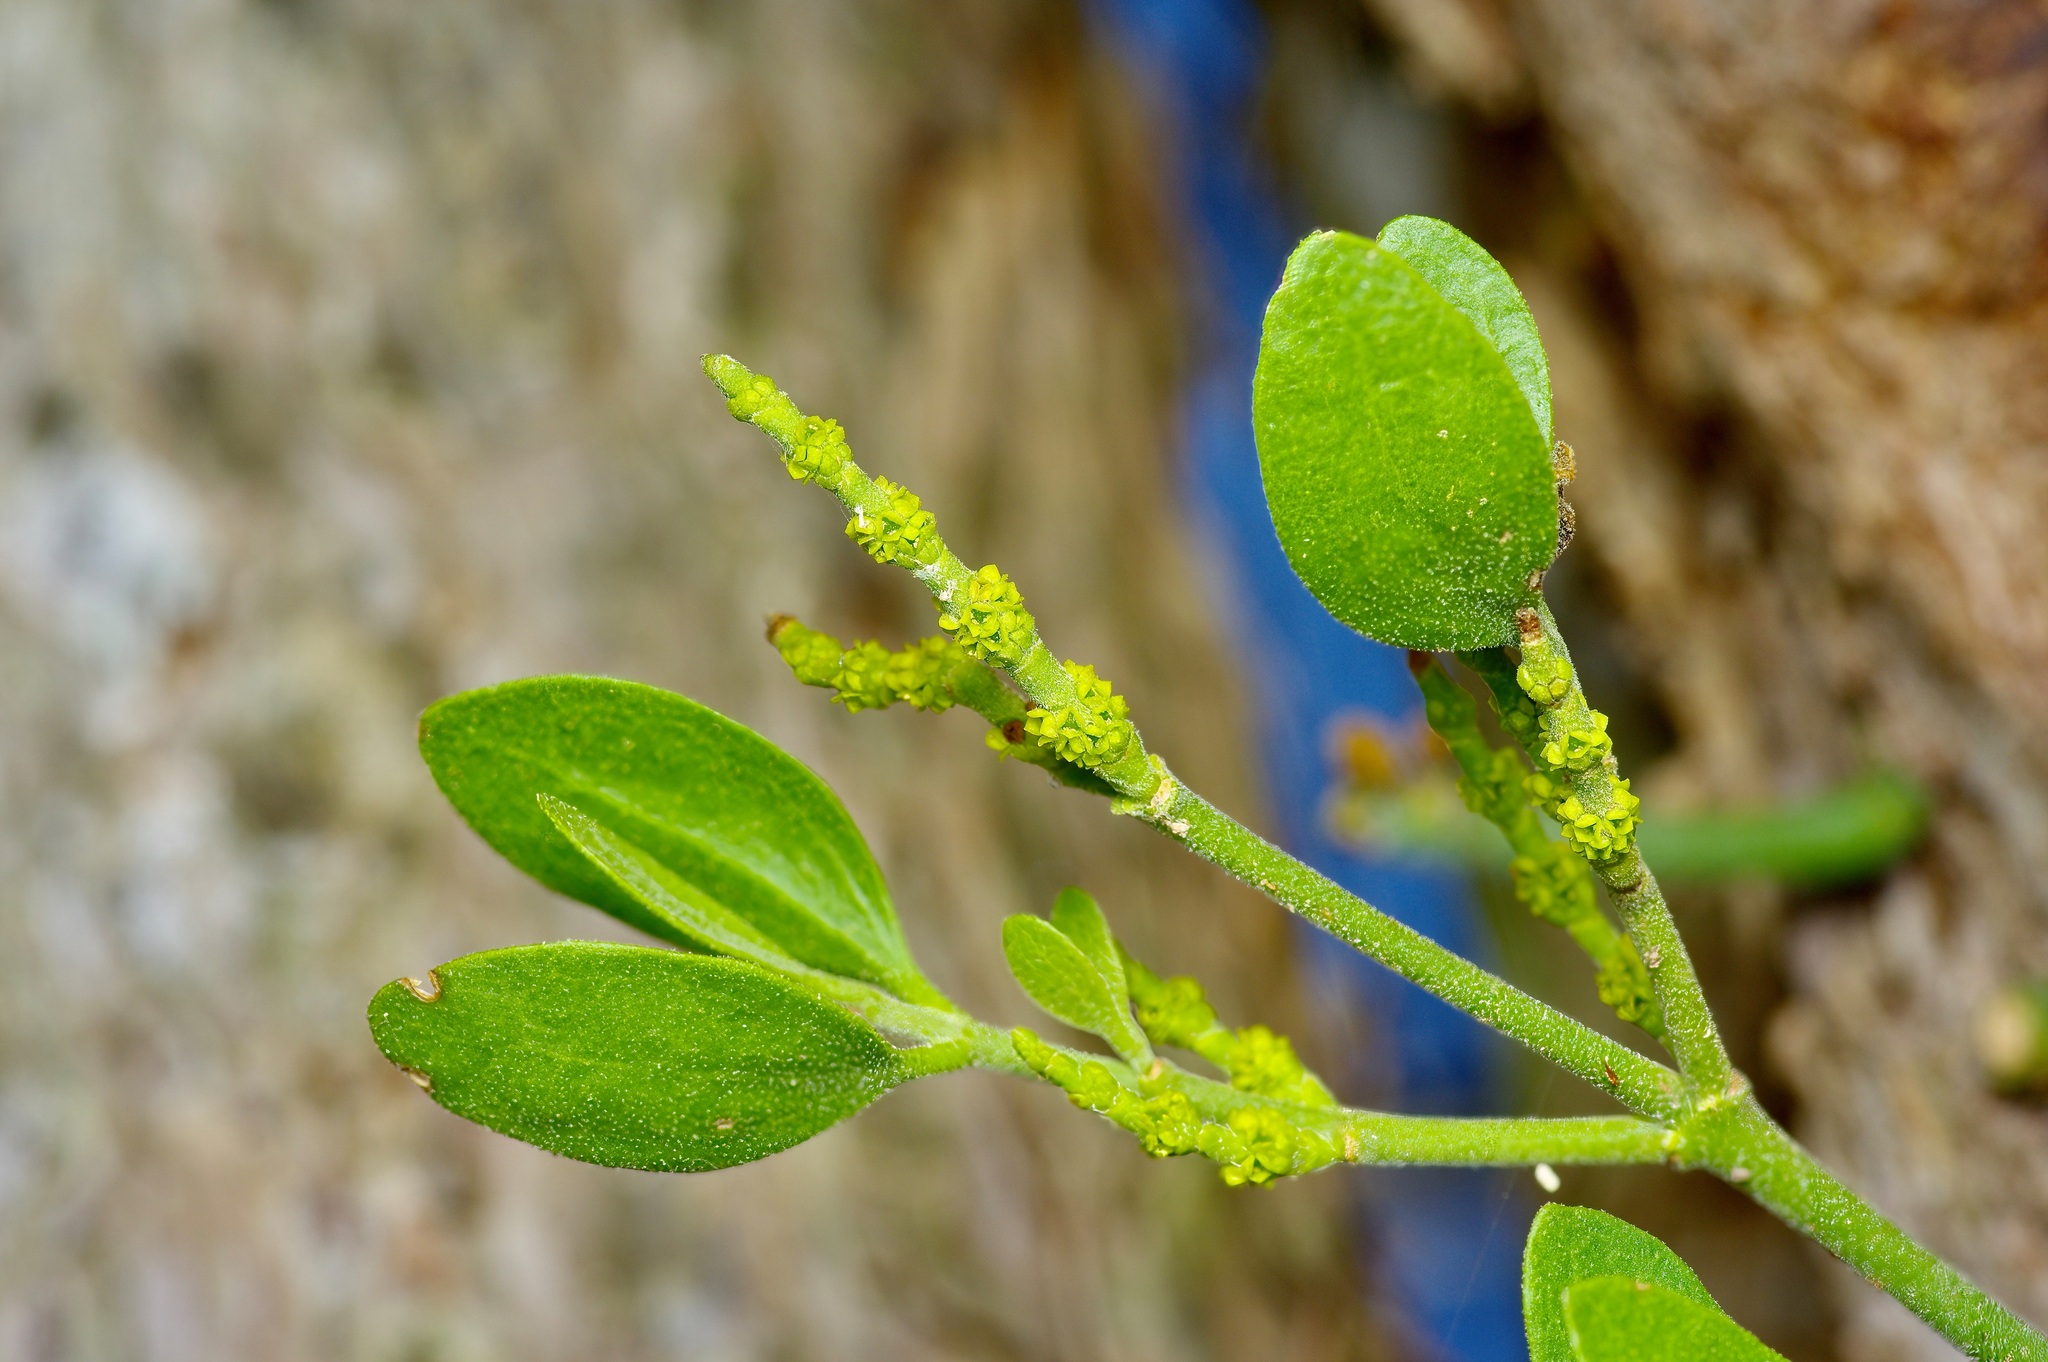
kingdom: Plantae
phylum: Tracheophyta
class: Magnoliopsida
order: Santalales
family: Viscaceae
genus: Phoradendron
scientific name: Phoradendron leucarpum
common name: Pacific mistletoe
